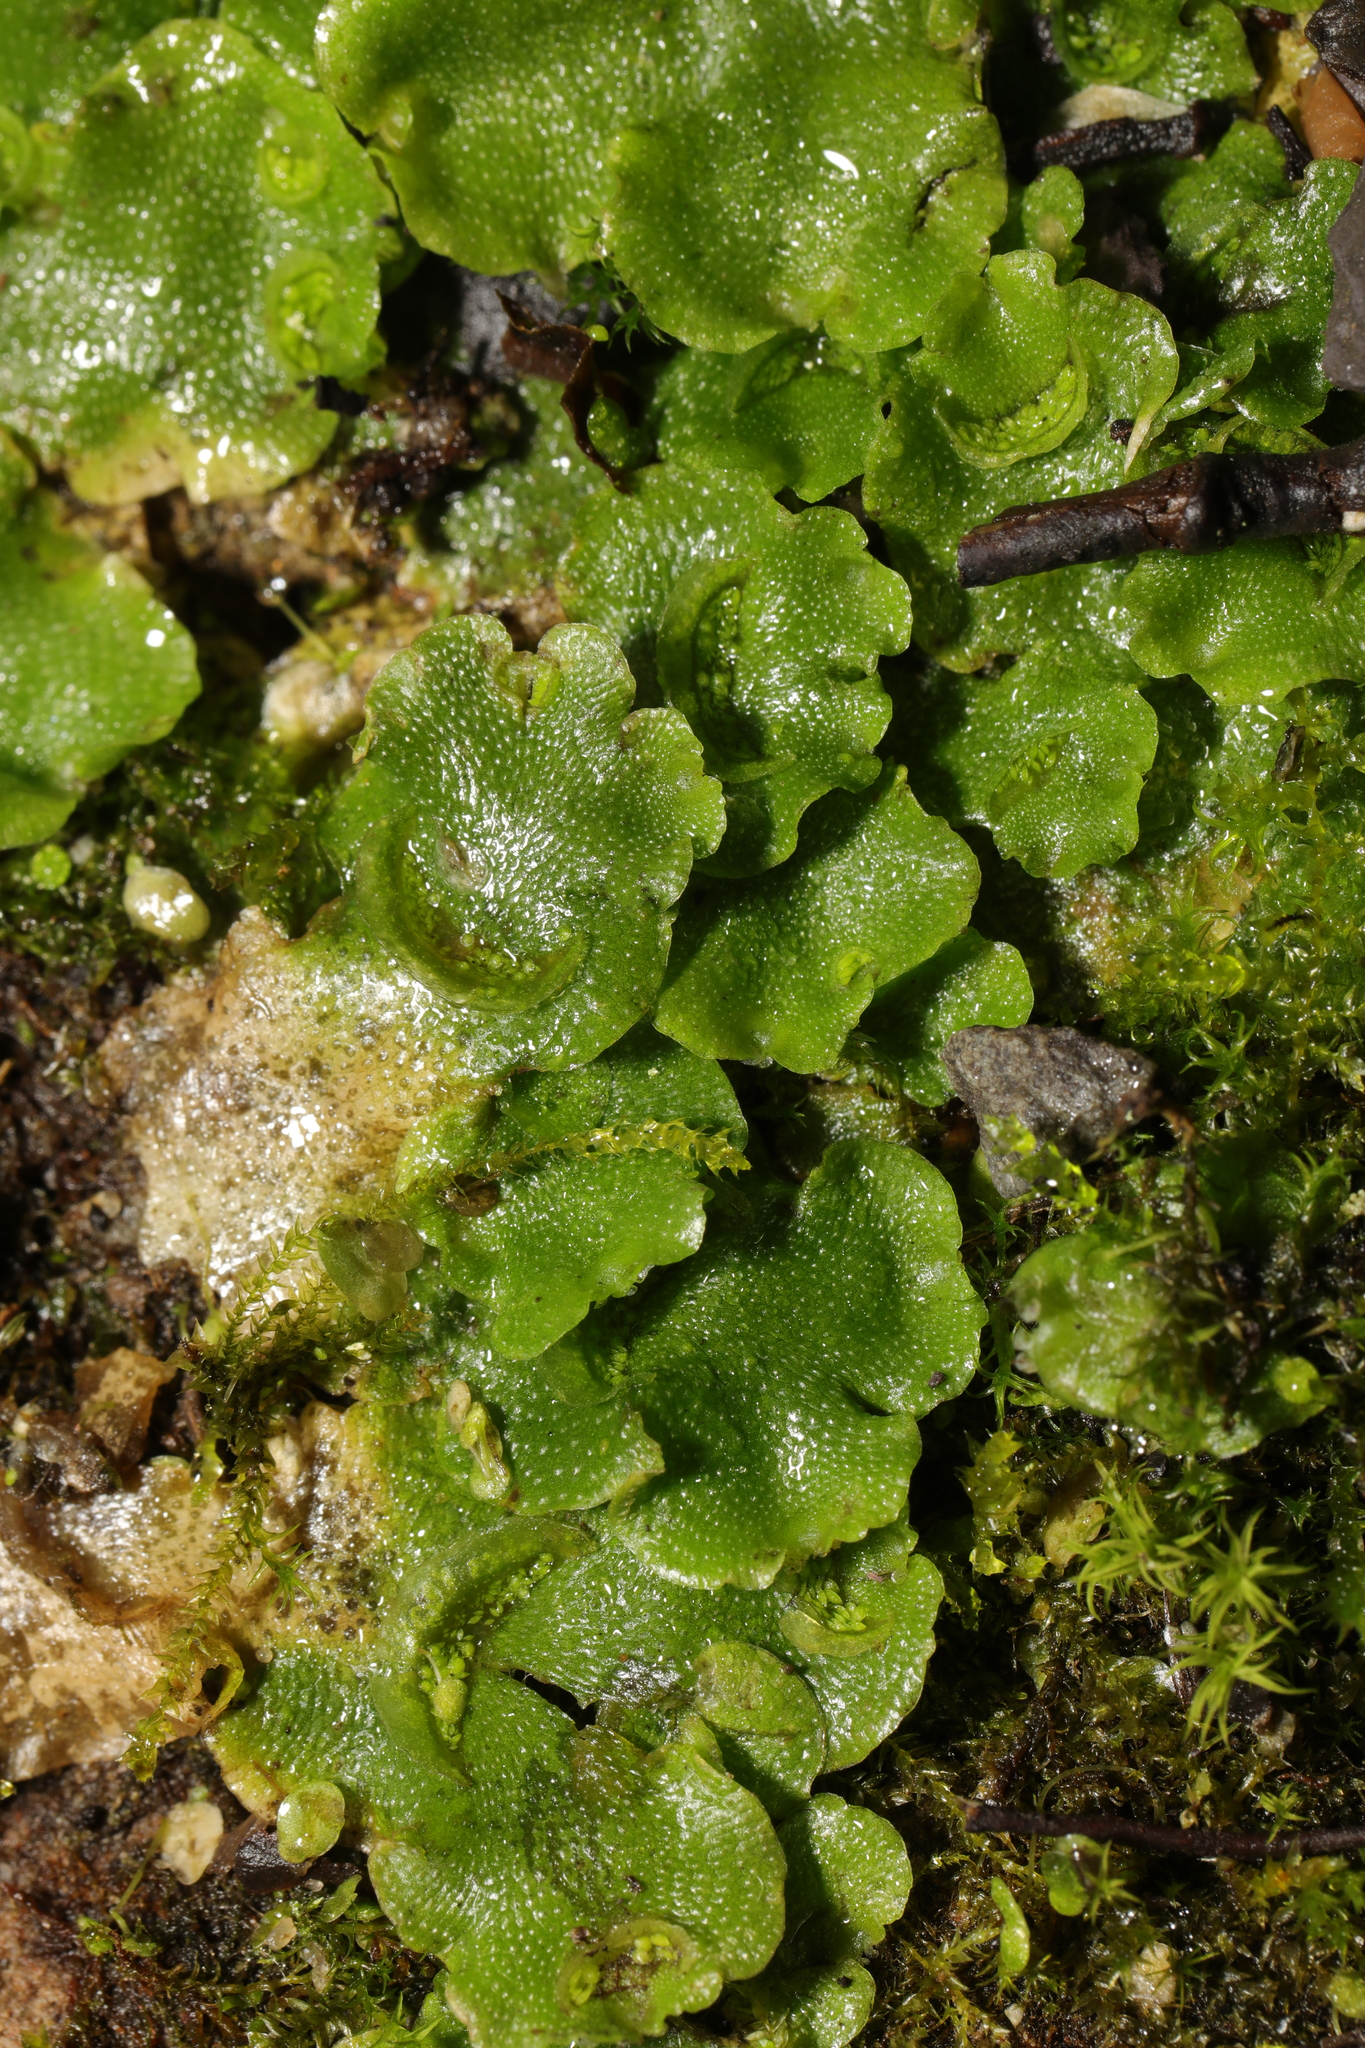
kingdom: Plantae
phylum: Marchantiophyta
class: Marchantiopsida
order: Lunulariales
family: Lunulariaceae
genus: Lunularia
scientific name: Lunularia cruciata
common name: Crescent-cup liverwort
